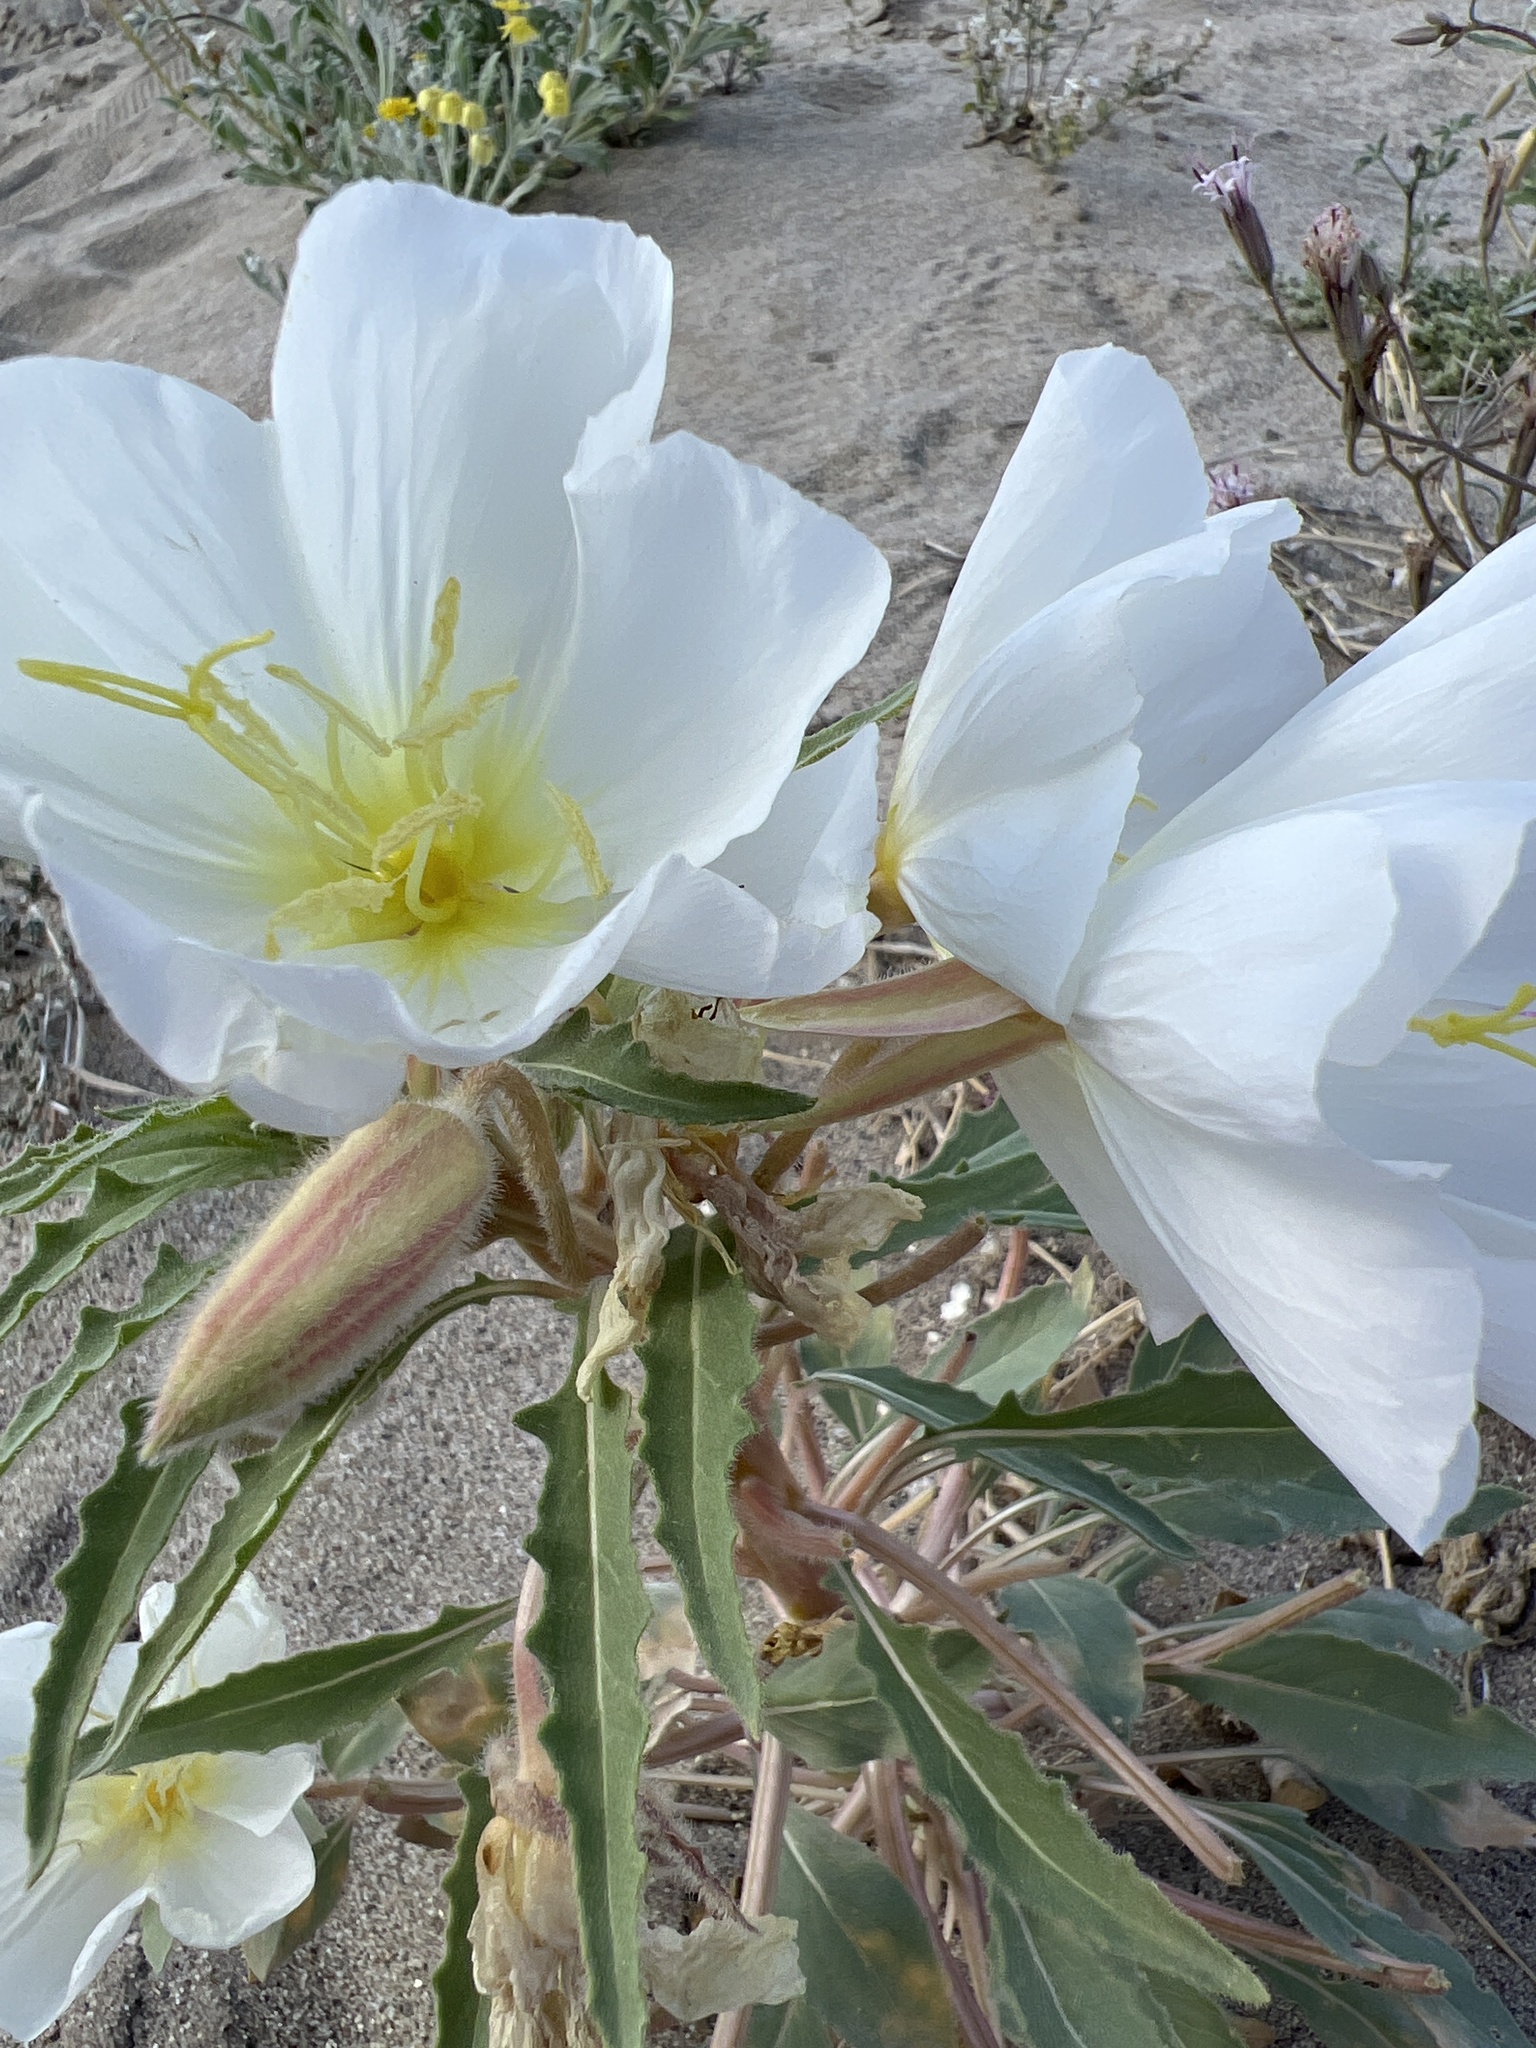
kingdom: Plantae
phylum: Tracheophyta
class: Magnoliopsida
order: Myrtales
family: Onagraceae
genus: Oenothera
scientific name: Oenothera deltoides
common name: Basket evening-primrose
